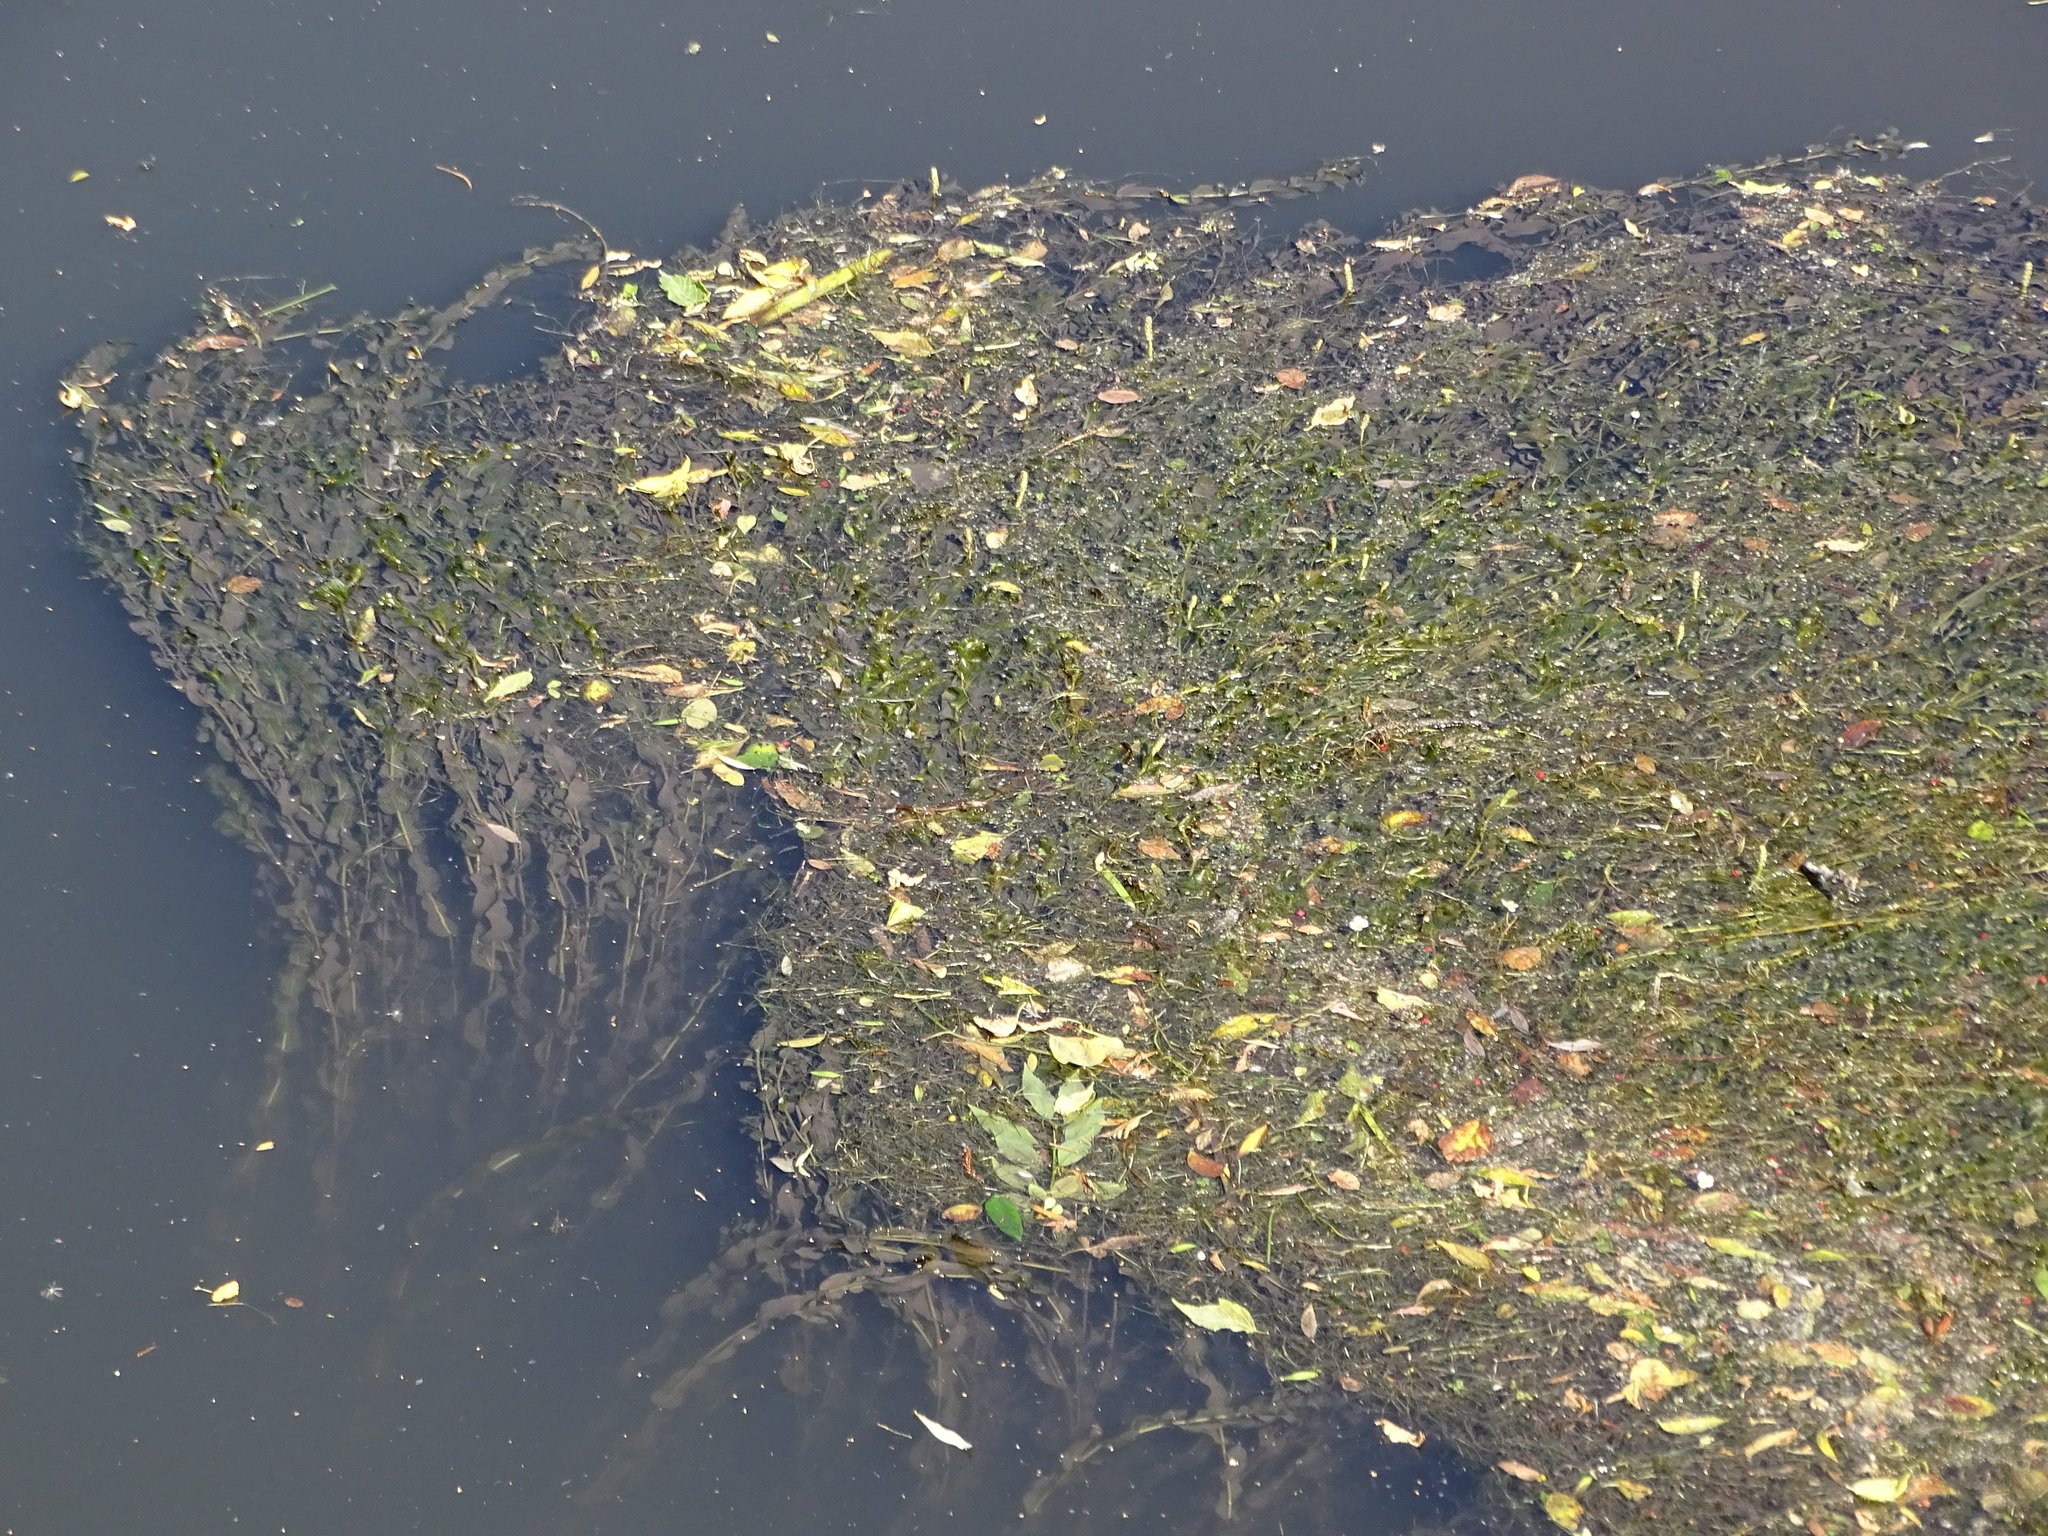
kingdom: Plantae
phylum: Tracheophyta
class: Liliopsida
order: Alismatales
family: Potamogetonaceae
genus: Potamogeton
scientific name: Potamogeton perfoliatus
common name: Perfoliate pondweed
